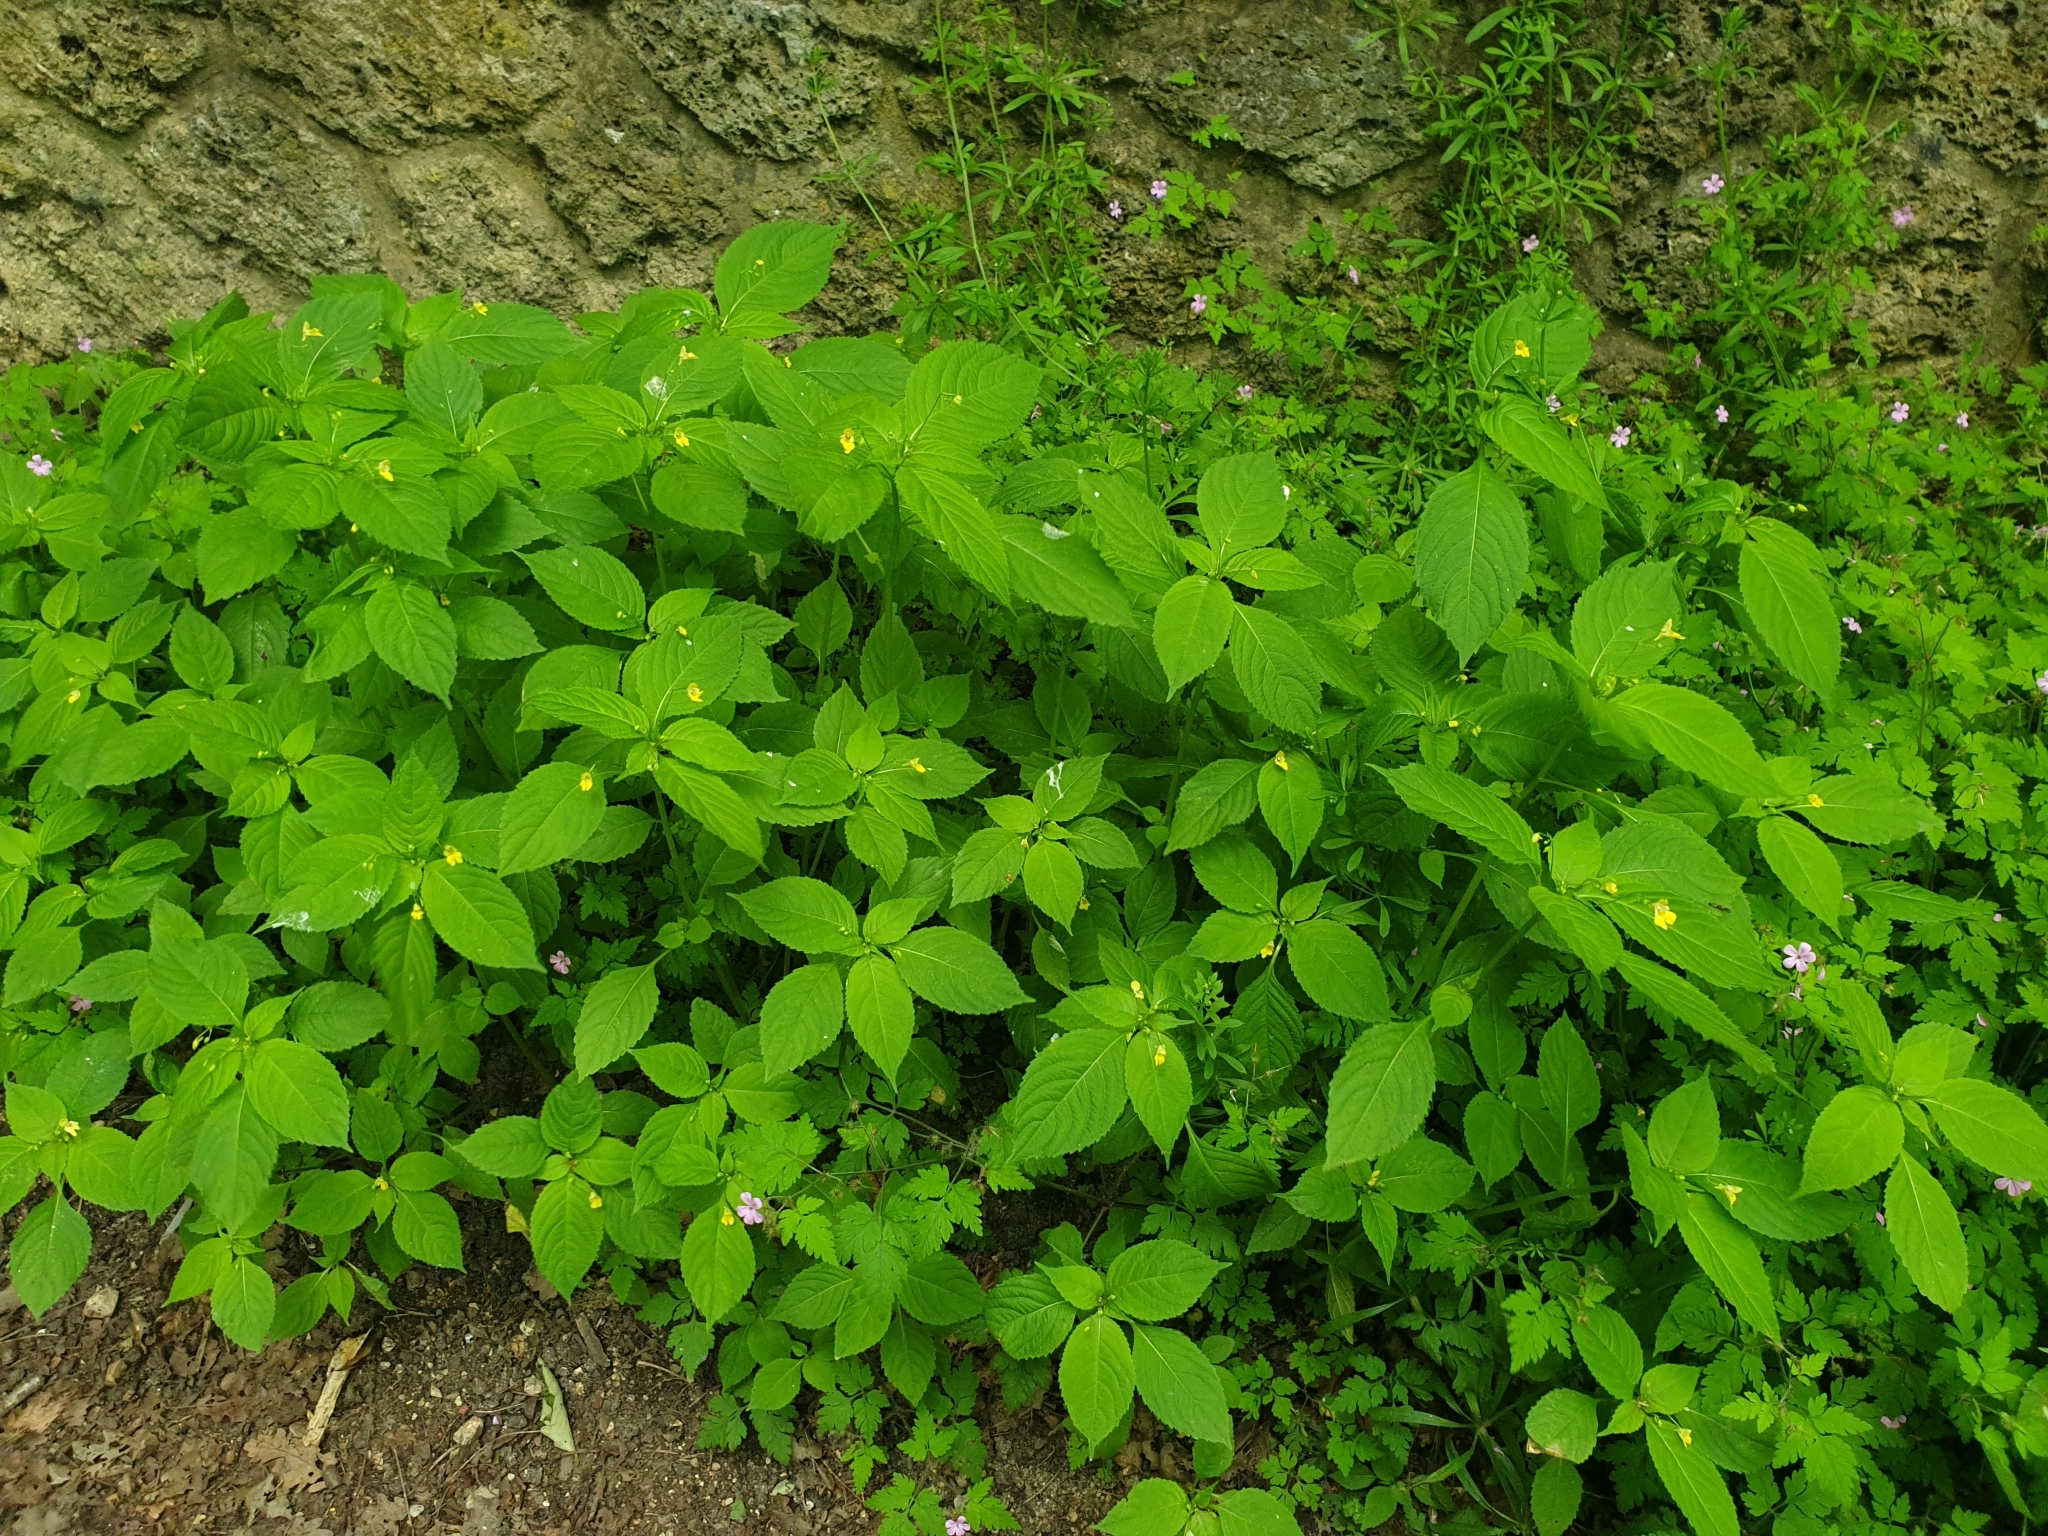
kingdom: Plantae
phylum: Tracheophyta
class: Magnoliopsida
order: Ericales
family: Balsaminaceae
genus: Impatiens
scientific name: Impatiens parviflora
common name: Small balsam
